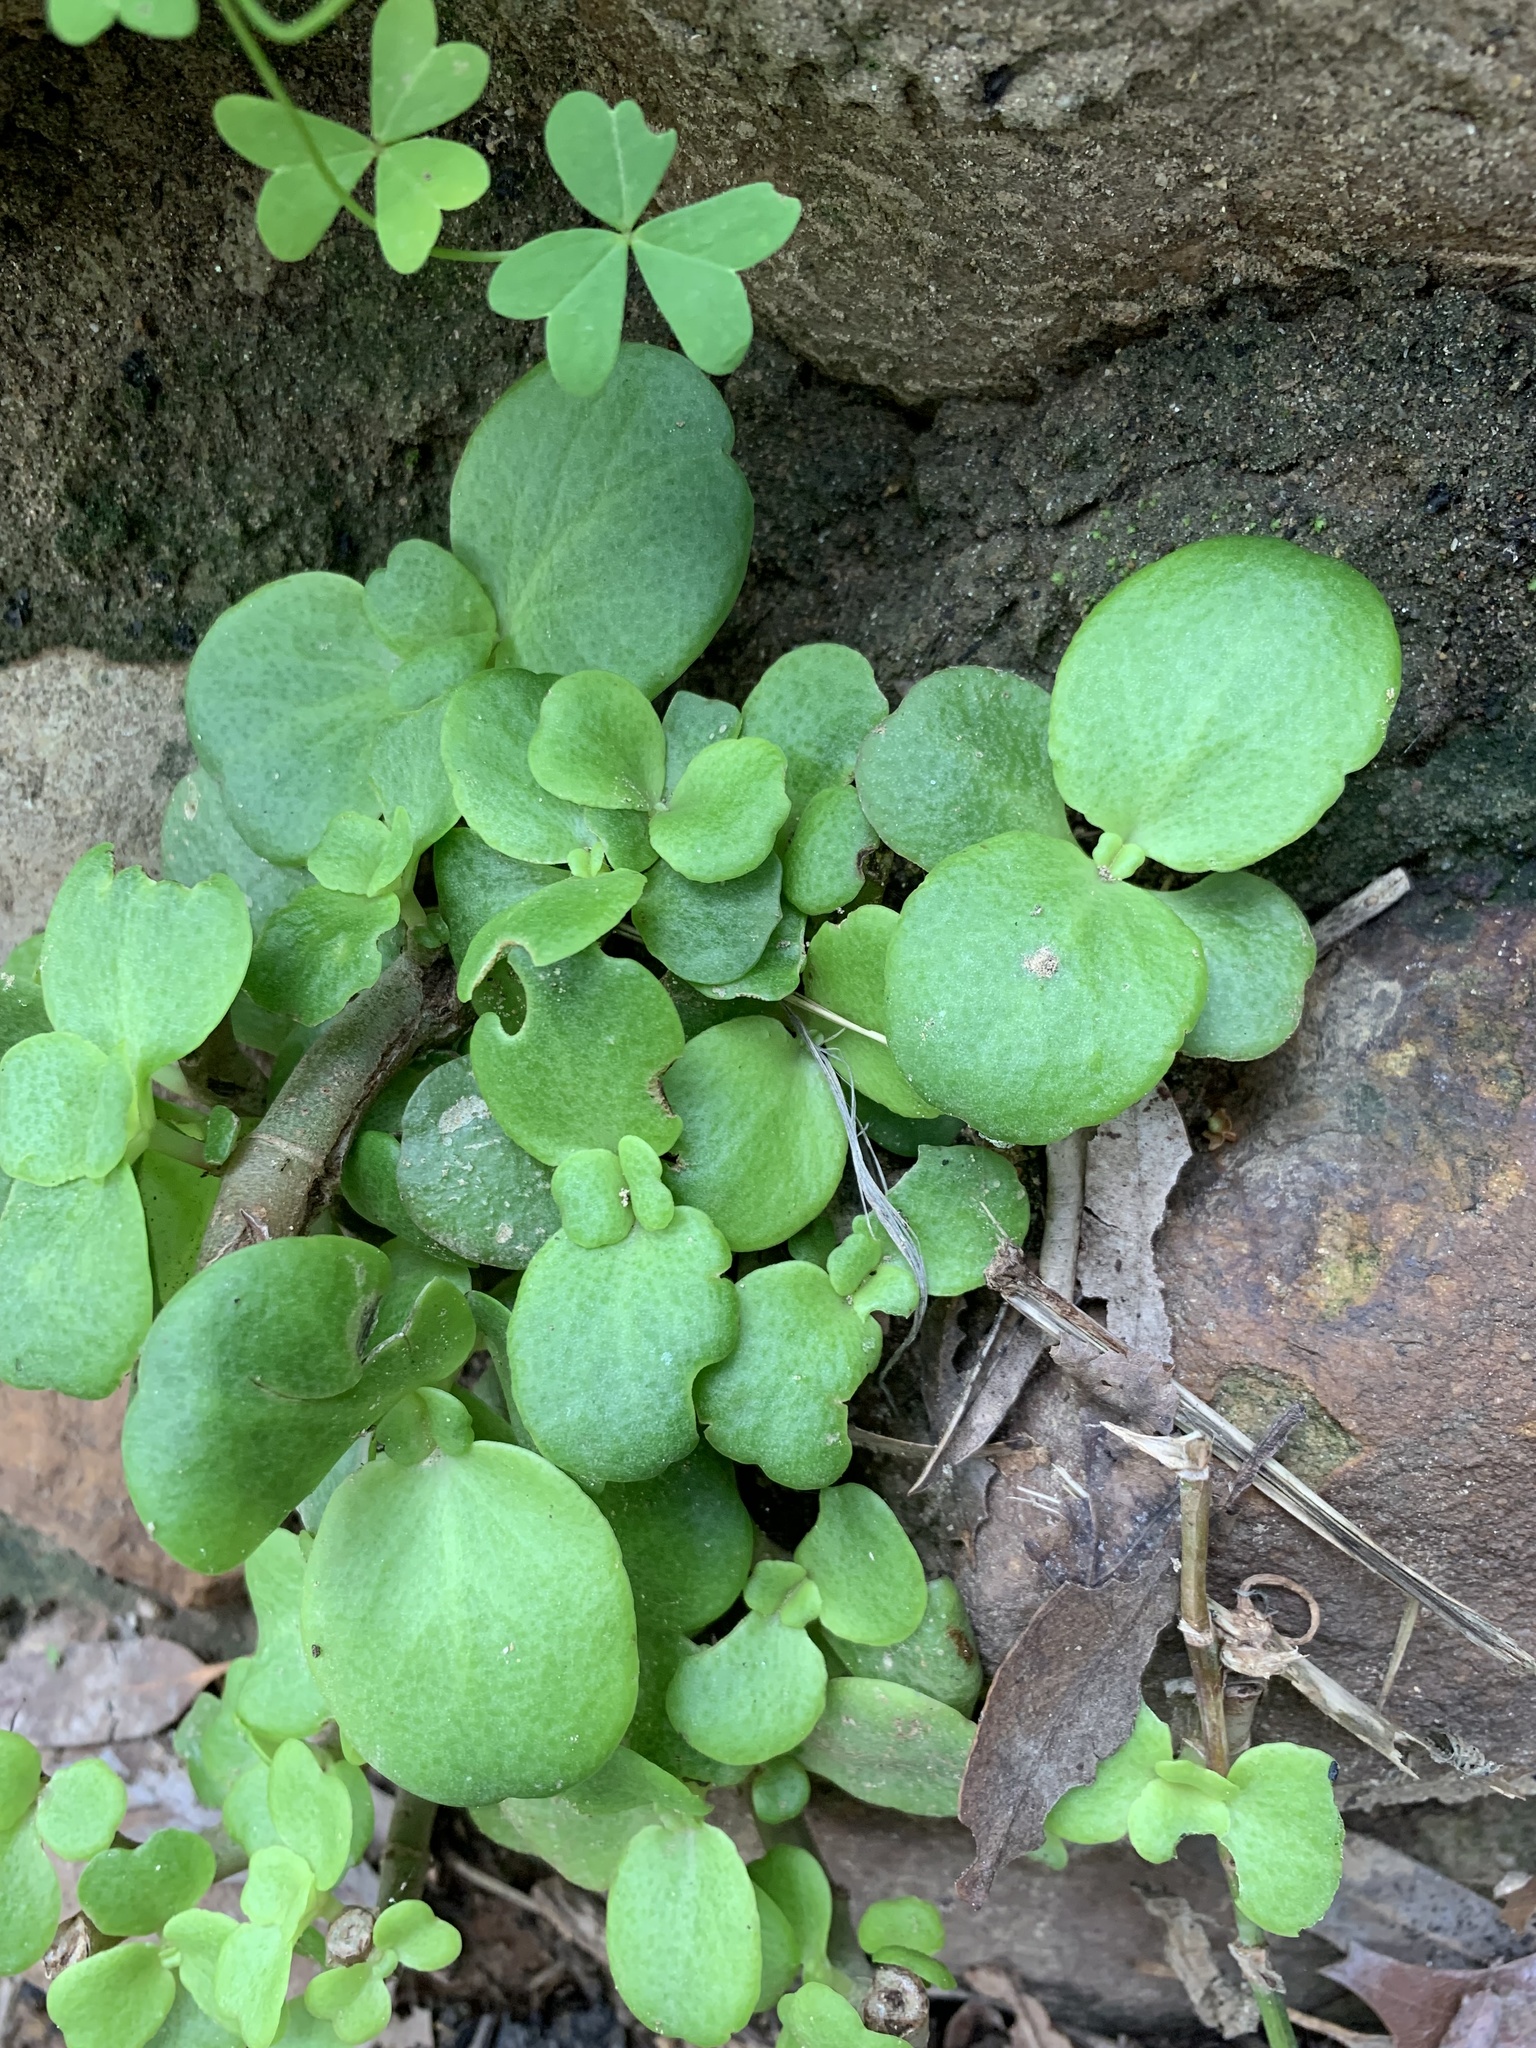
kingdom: Plantae
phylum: Tracheophyta
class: Magnoliopsida
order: Saxifragales
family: Crassulaceae
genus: Crassula
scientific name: Crassula multicava
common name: Cape province pygmyweed
